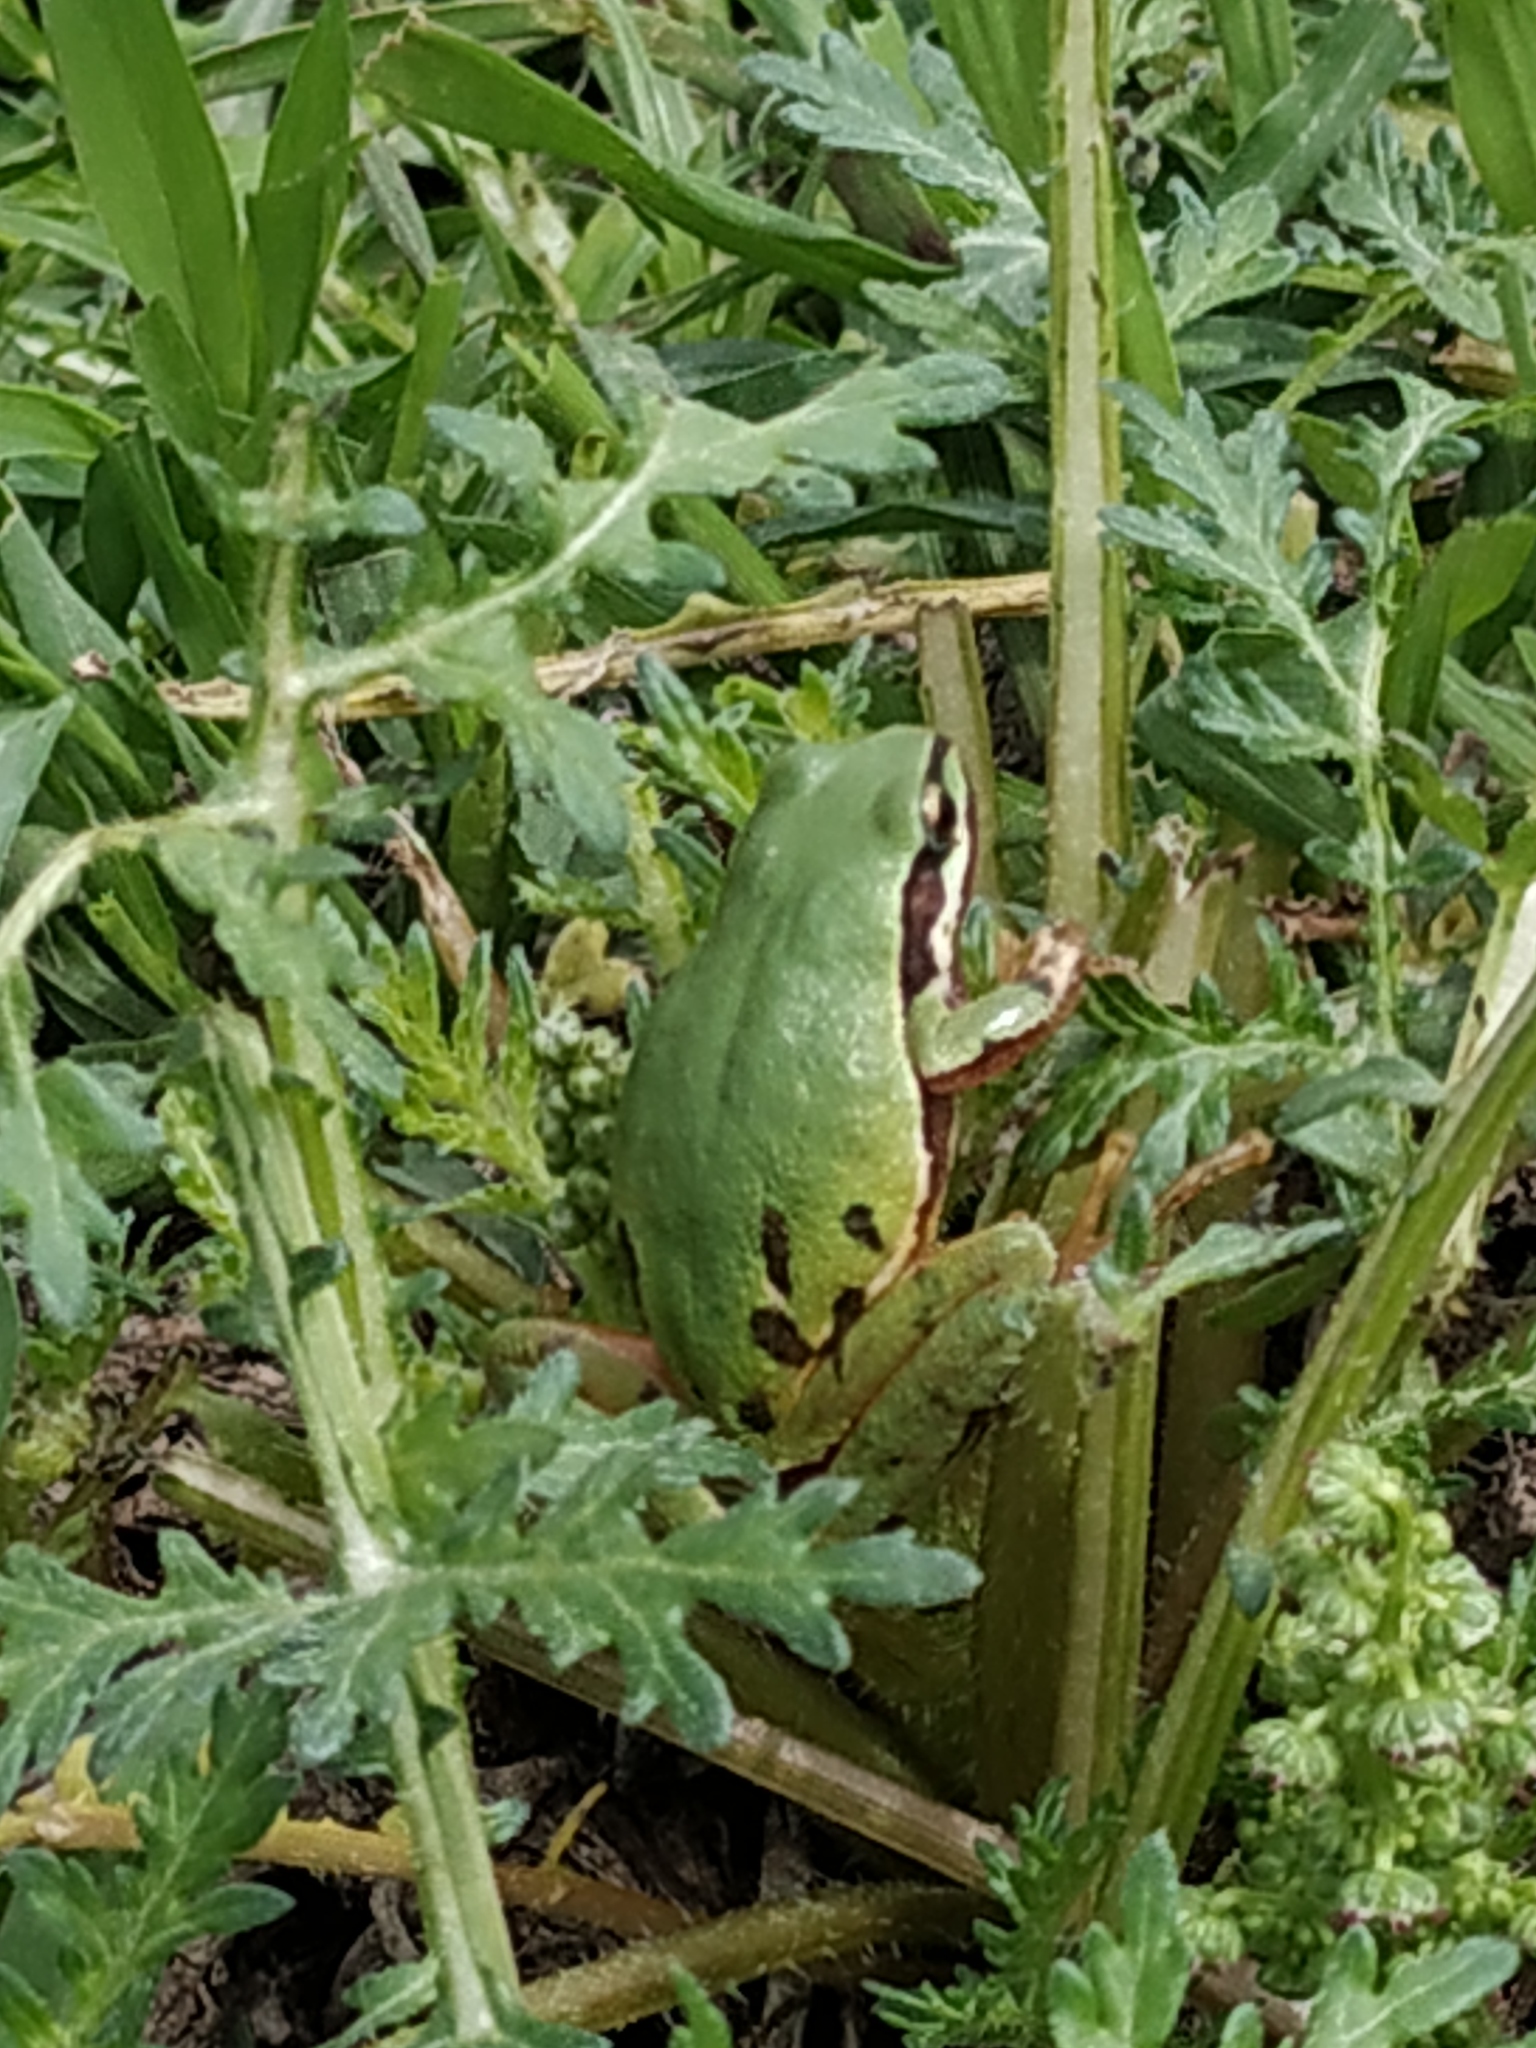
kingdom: Animalia
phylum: Chordata
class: Amphibia
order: Anura
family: Hylidae
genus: Dryophytes
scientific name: Dryophytes eximius
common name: Mountain treefrog
